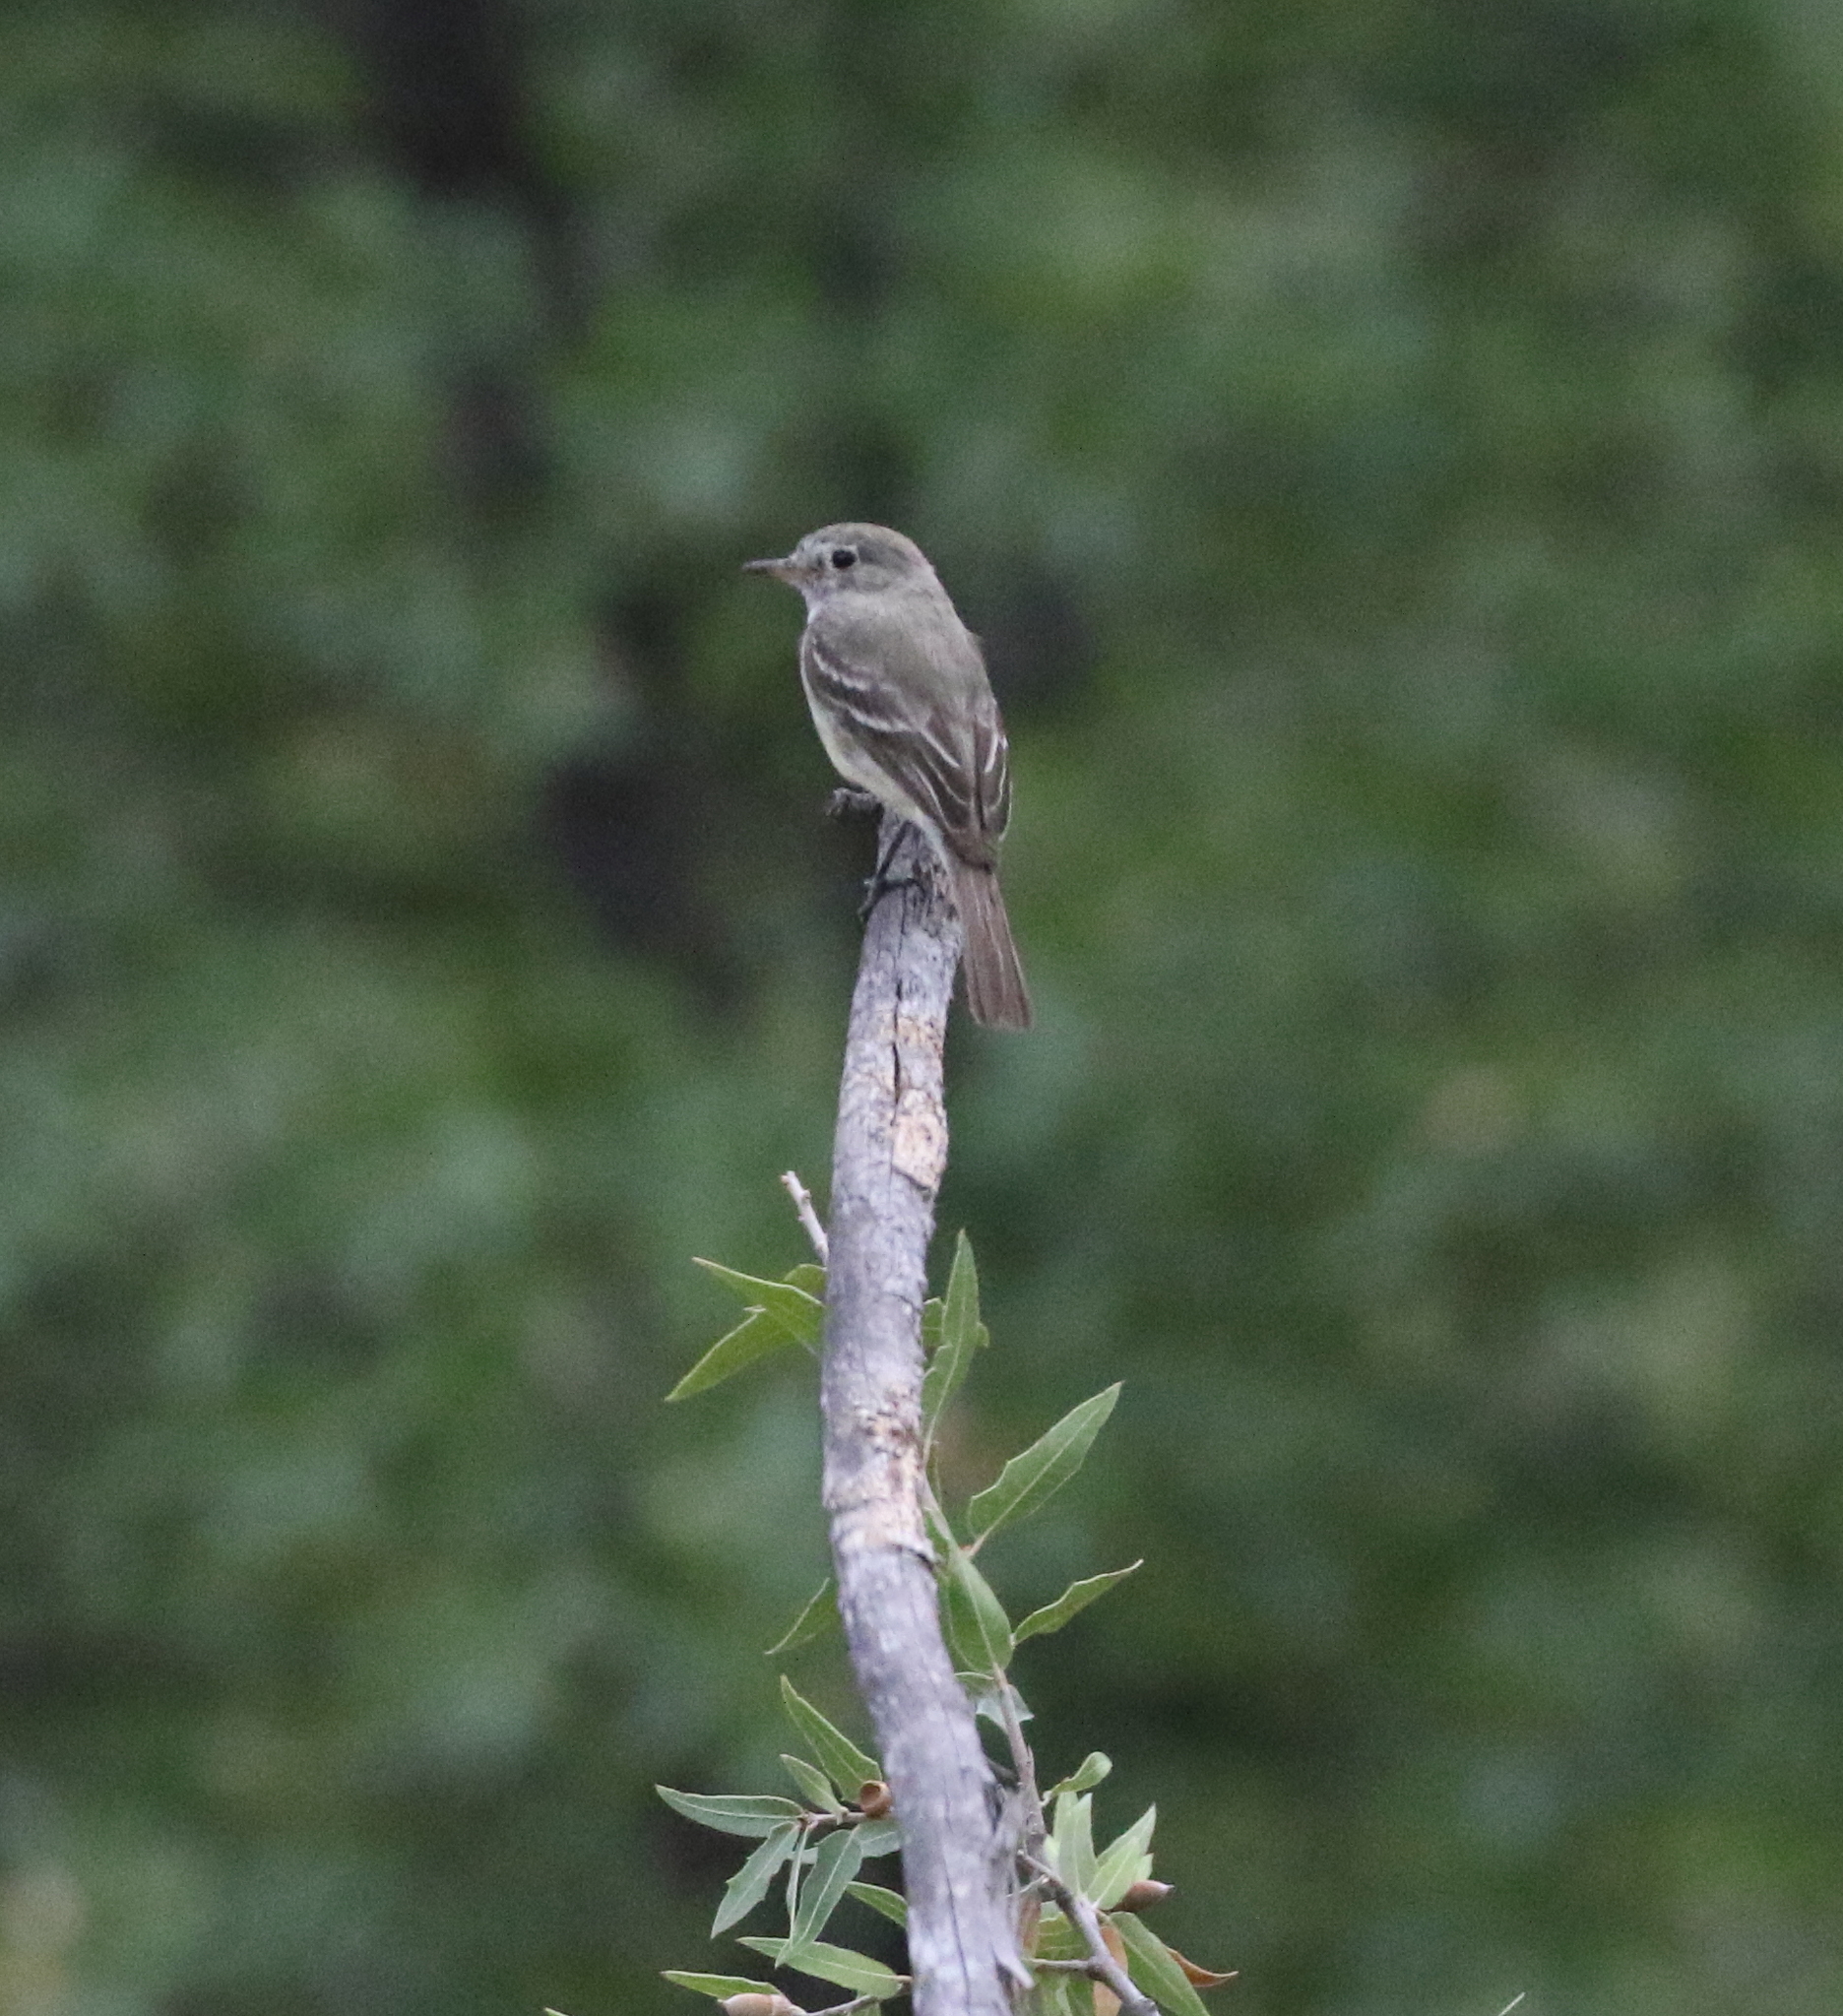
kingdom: Animalia
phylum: Chordata
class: Aves
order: Passeriformes
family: Tyrannidae
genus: Empidonax
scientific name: Empidonax wrightii
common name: Gray flycatcher
